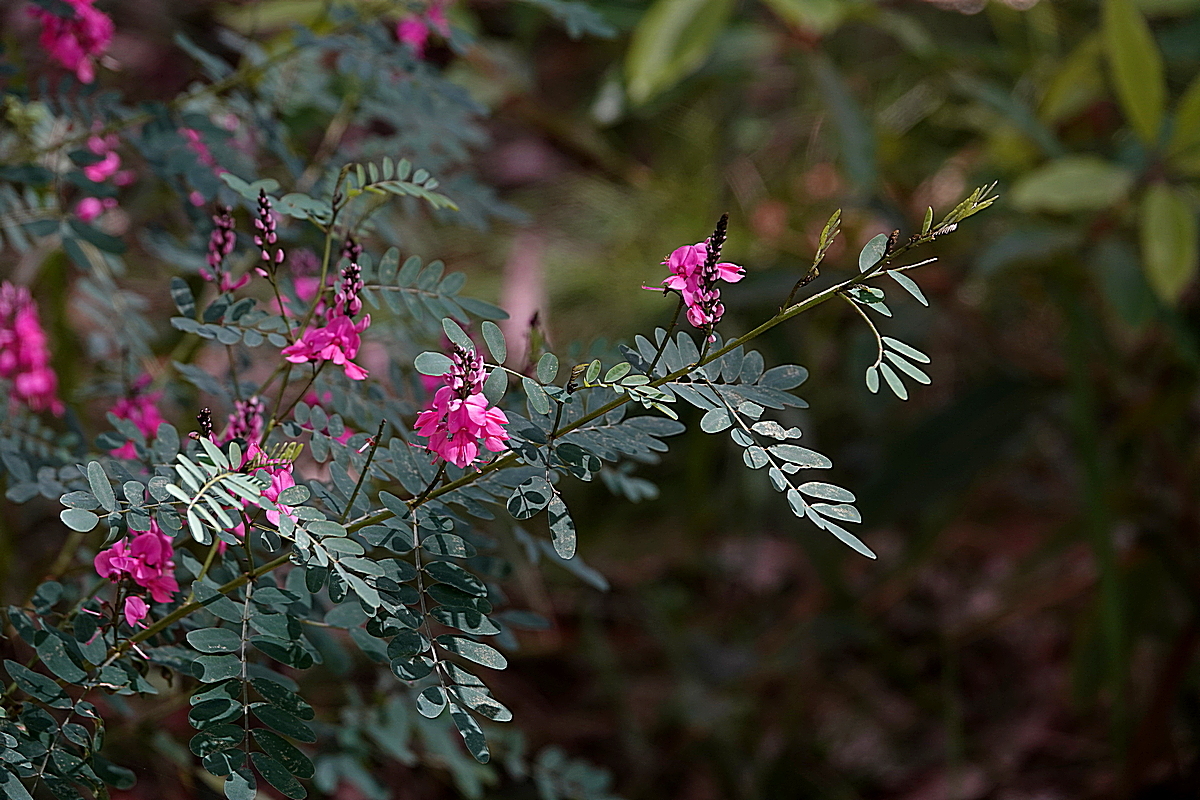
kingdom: Plantae
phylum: Tracheophyta
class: Magnoliopsida
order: Fabales
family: Fabaceae
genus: Indigofera
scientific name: Indigofera australis
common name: Australian indigo
